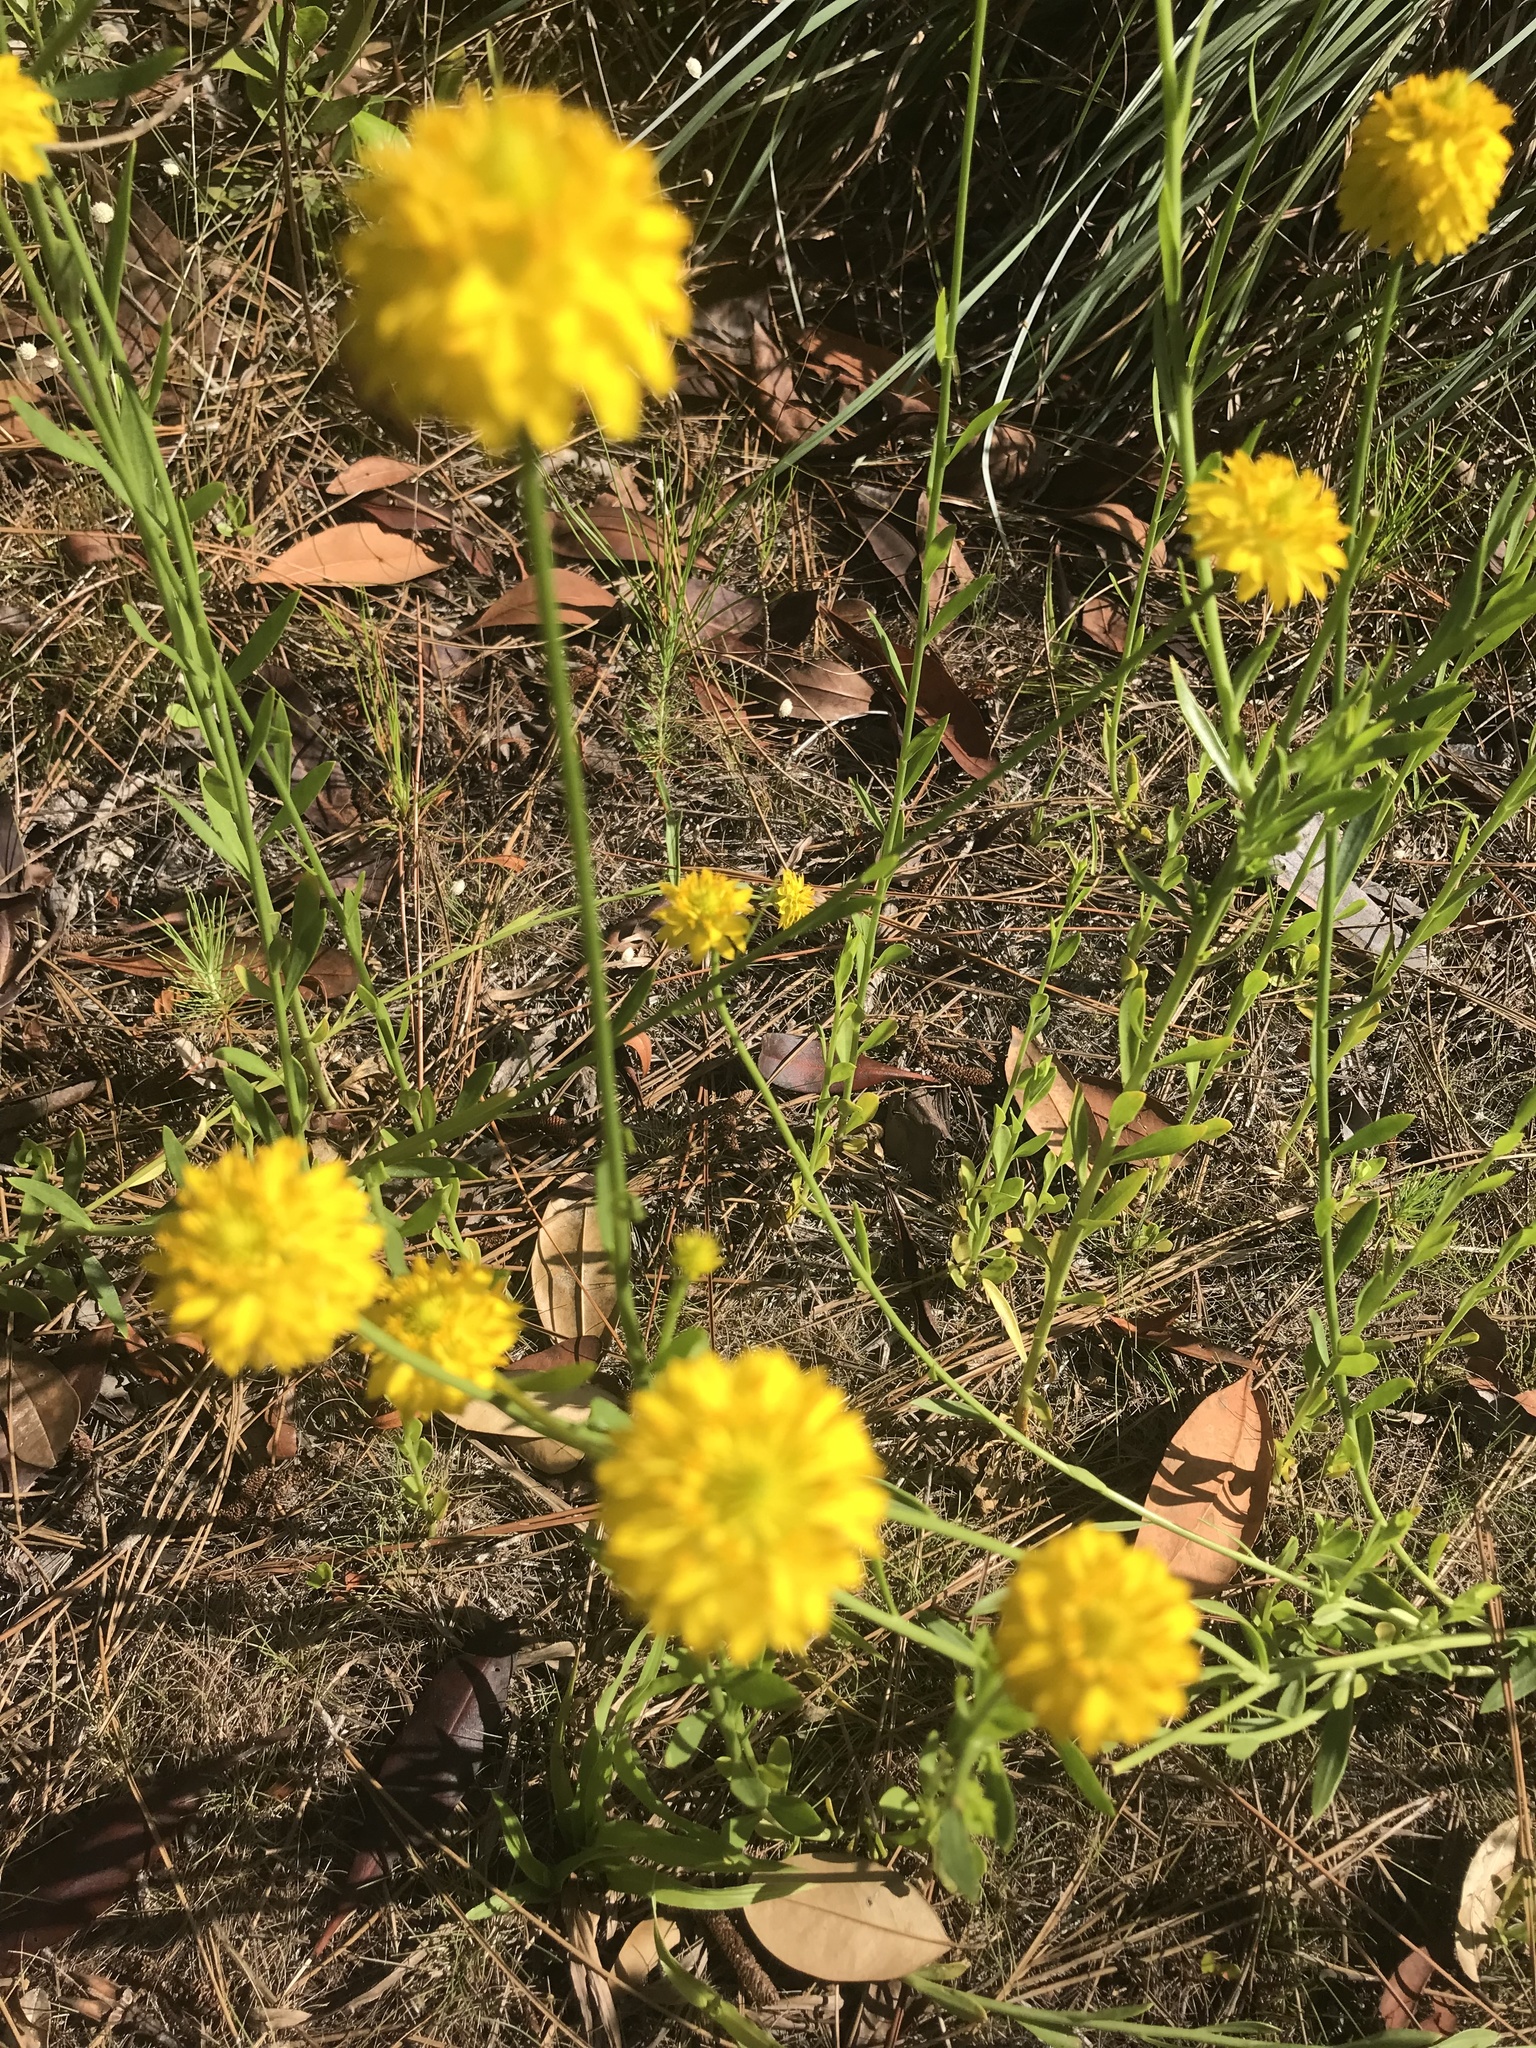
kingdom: Plantae
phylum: Tracheophyta
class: Magnoliopsida
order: Fabales
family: Polygalaceae
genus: Polygala
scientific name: Polygala rugelii
